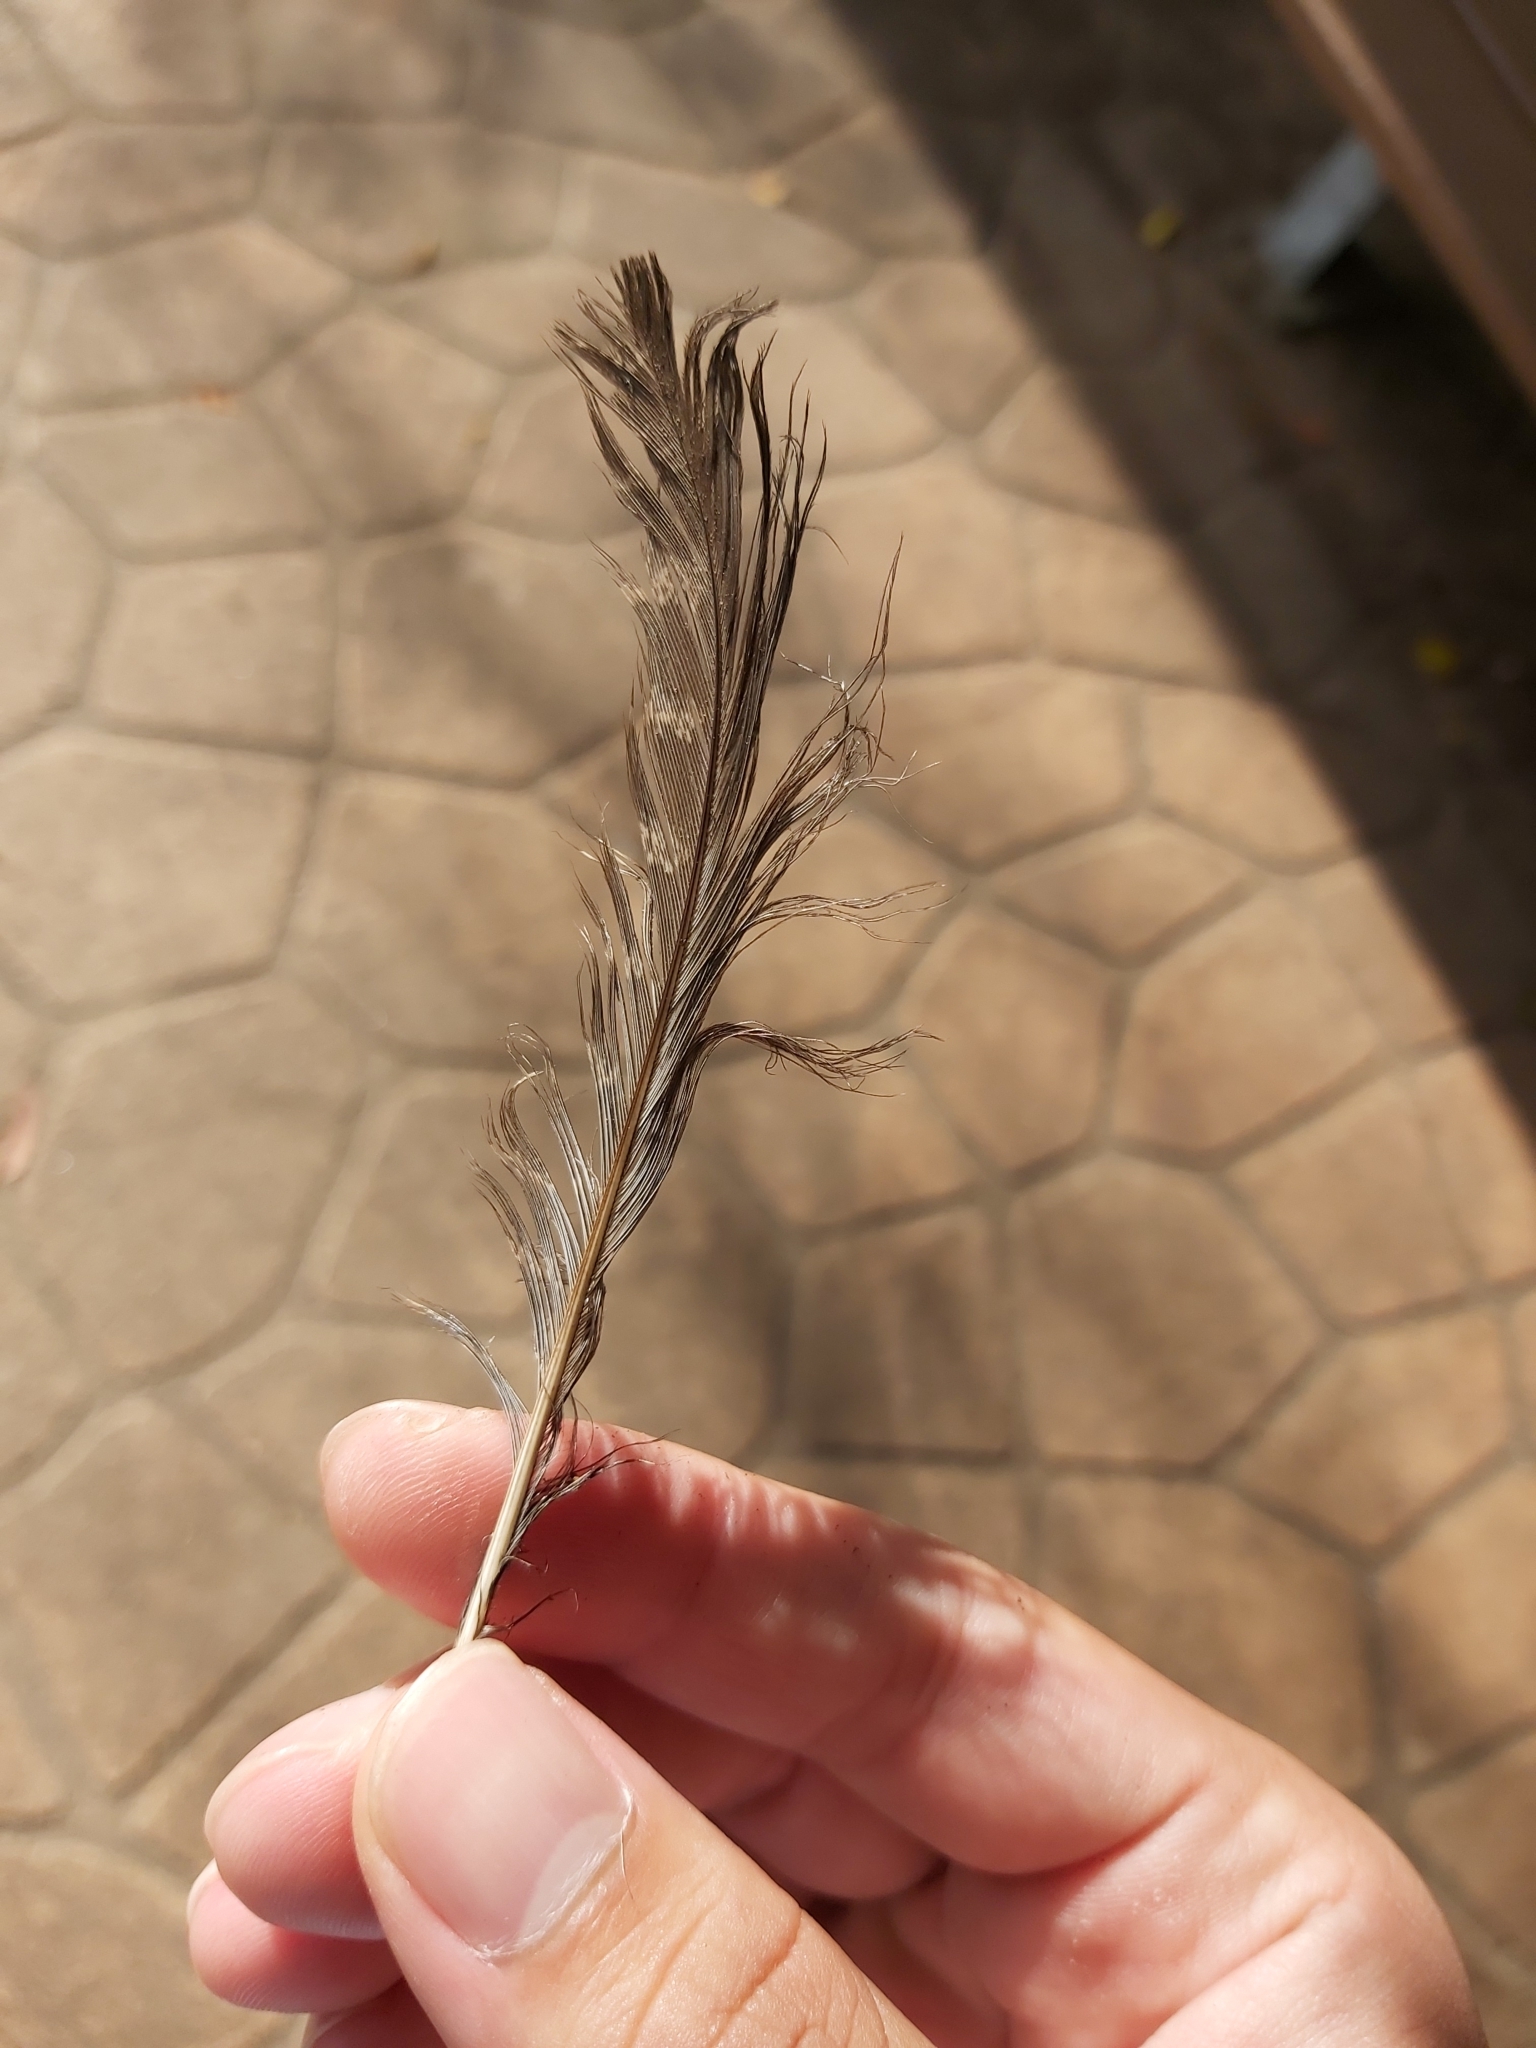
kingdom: Animalia
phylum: Chordata
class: Aves
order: Caprimulgiformes
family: Podargidae
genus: Podargus
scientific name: Podargus strigoides
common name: Tawny frogmouth
